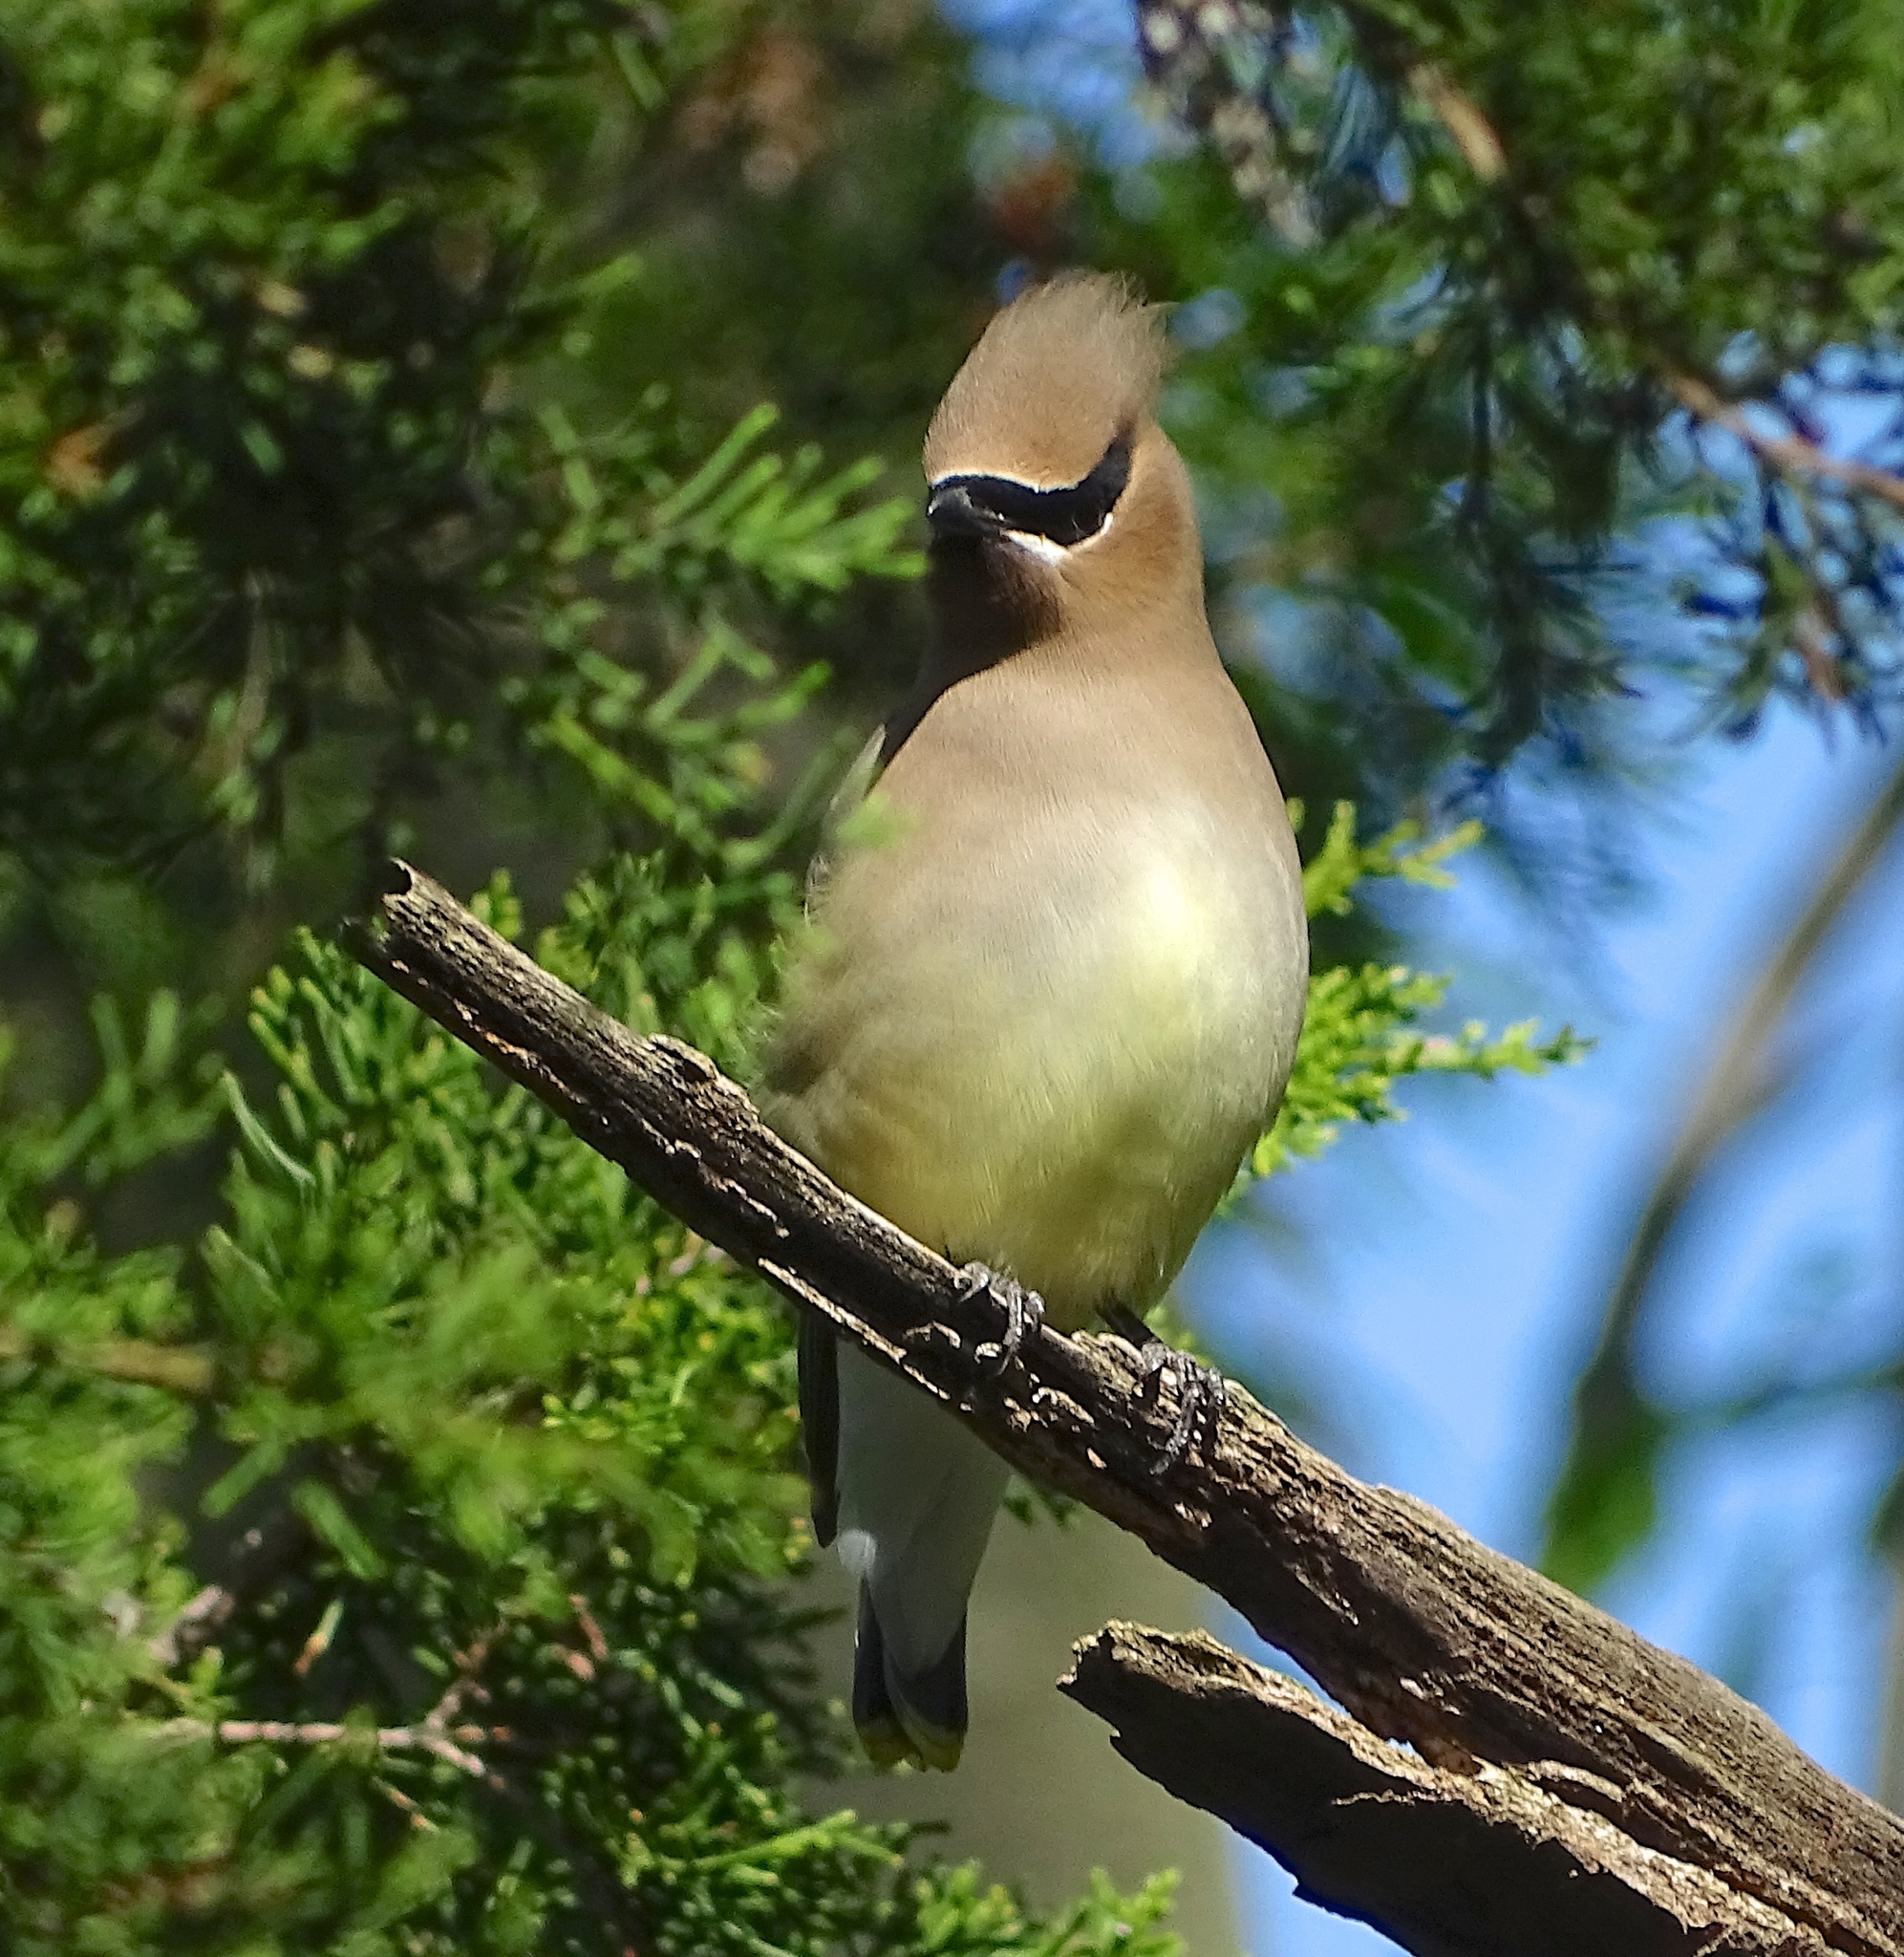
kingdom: Animalia
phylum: Chordata
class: Aves
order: Passeriformes
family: Bombycillidae
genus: Bombycilla
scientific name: Bombycilla cedrorum
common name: Cedar waxwing
